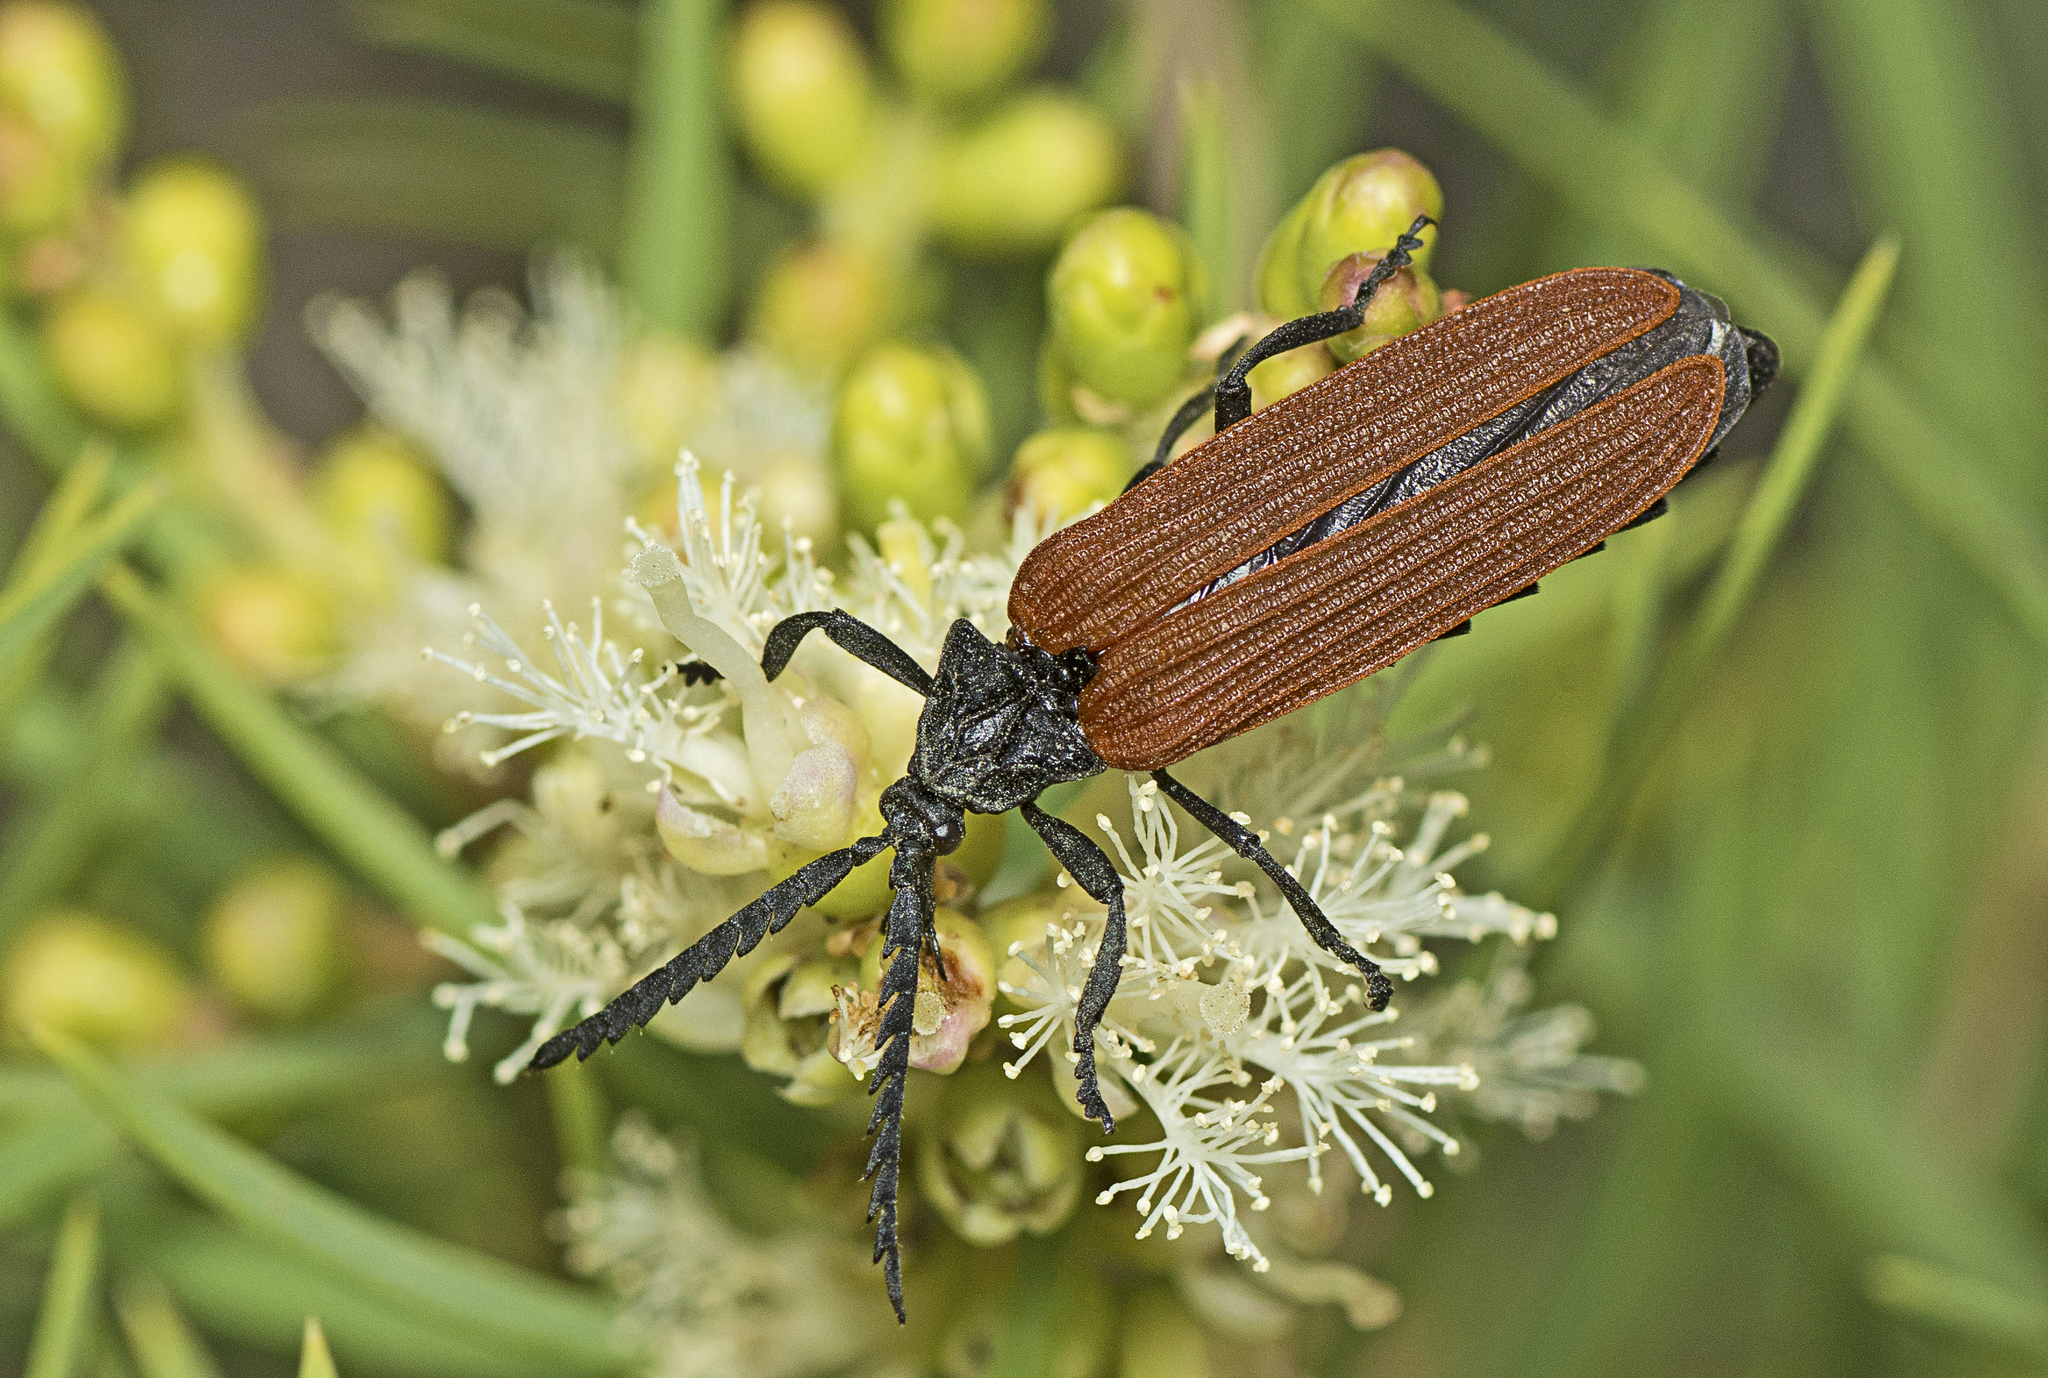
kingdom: Animalia
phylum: Arthropoda
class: Insecta
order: Coleoptera
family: Lycidae
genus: Porrostoma
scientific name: Porrostoma rhipidium
